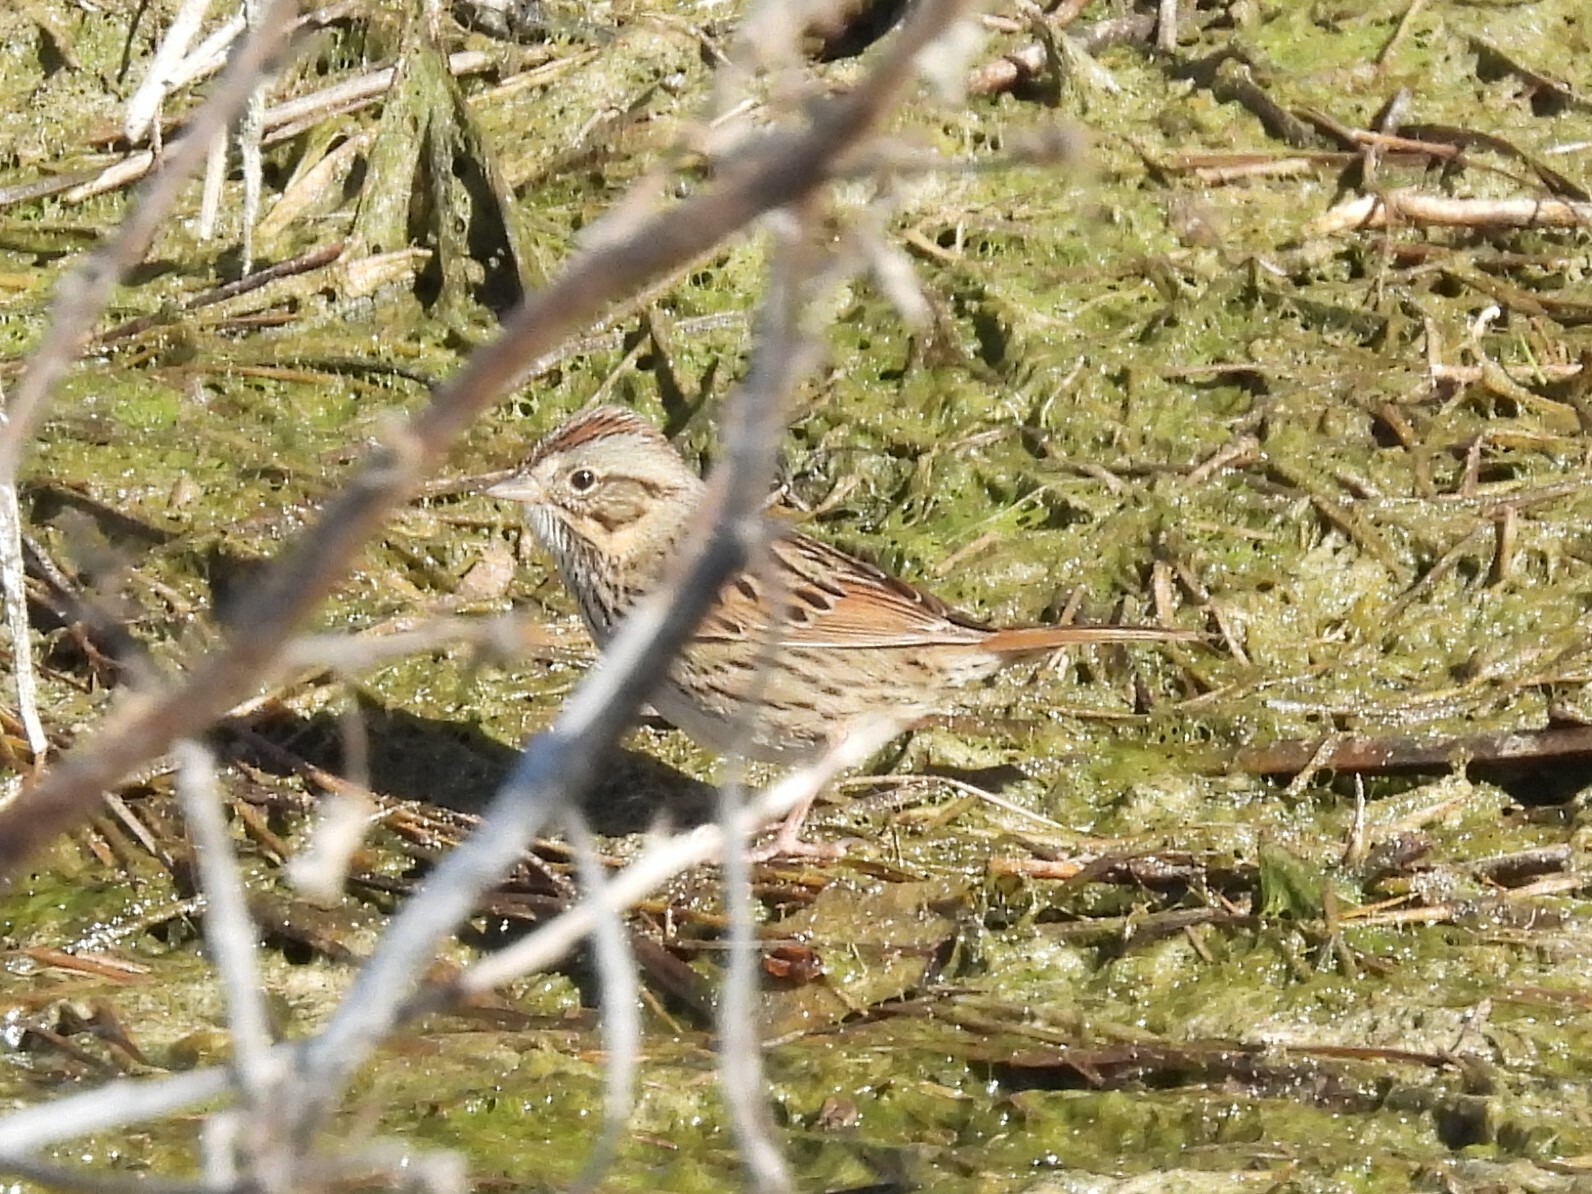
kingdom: Animalia
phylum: Chordata
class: Aves
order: Passeriformes
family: Passerellidae
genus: Melospiza
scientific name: Melospiza lincolnii
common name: Lincoln's sparrow
